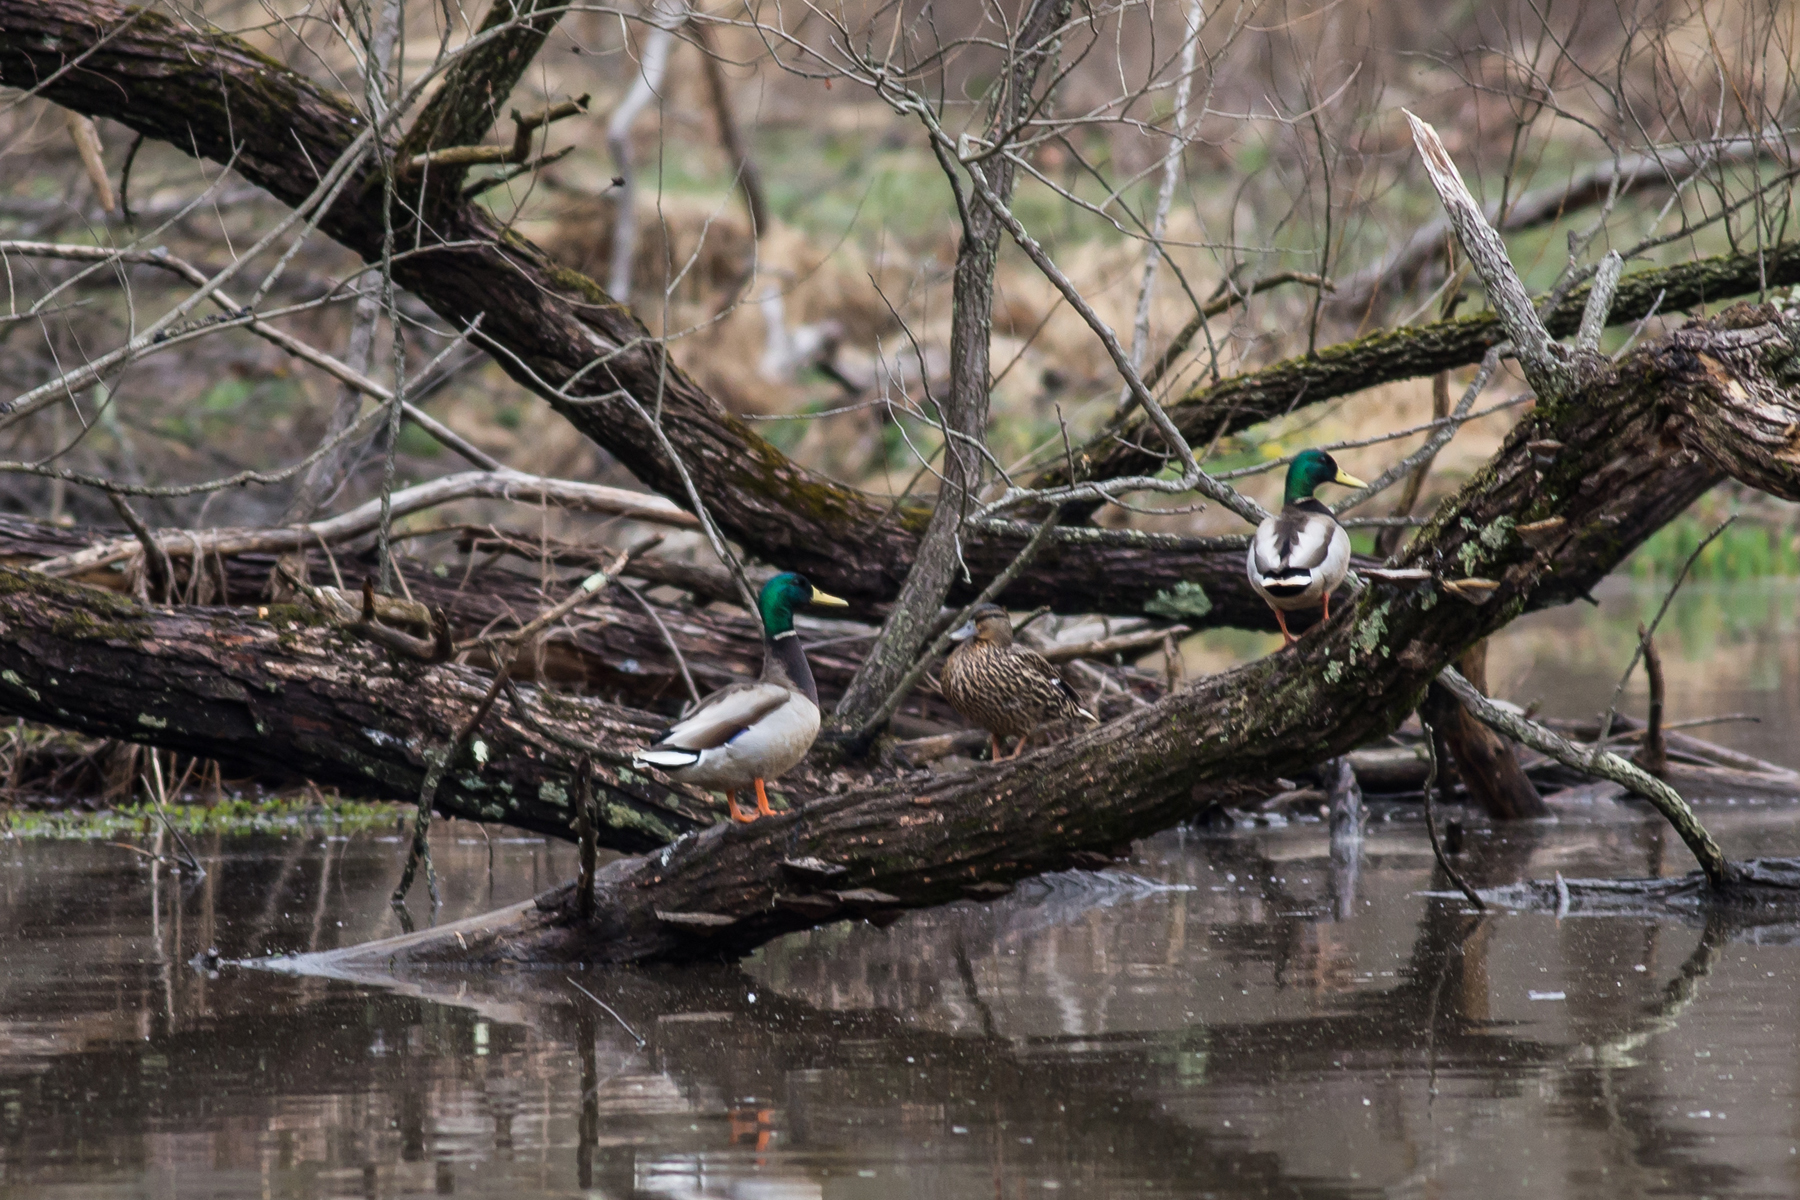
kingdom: Animalia
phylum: Chordata
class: Aves
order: Anseriformes
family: Anatidae
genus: Anas
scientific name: Anas platyrhynchos
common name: Mallard
